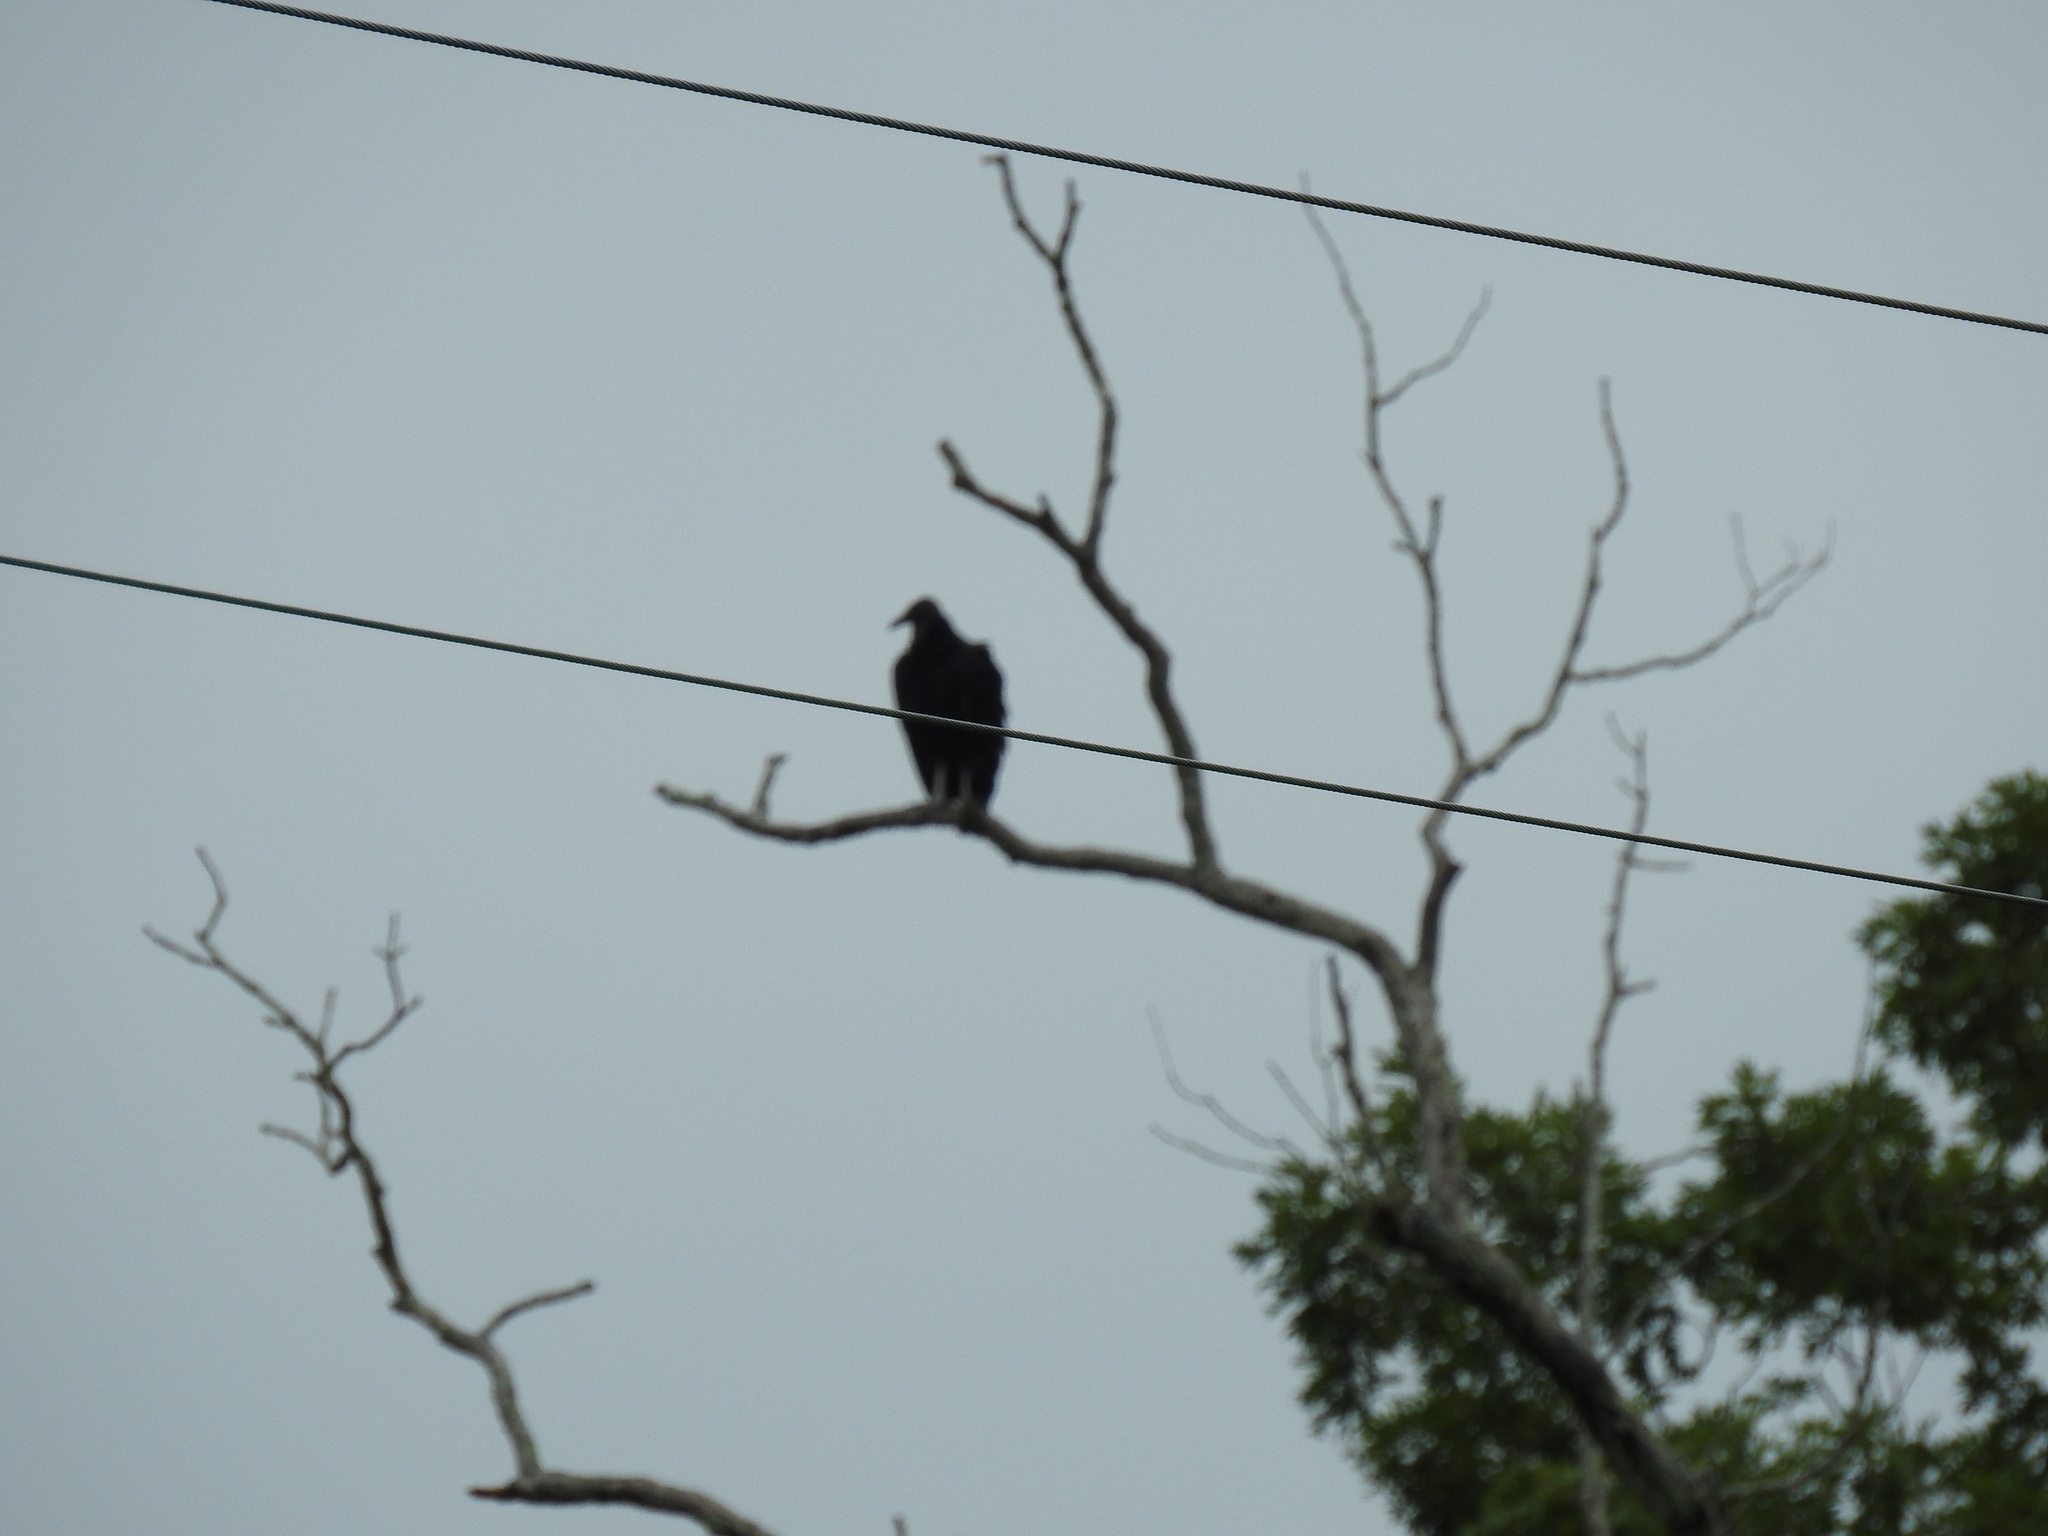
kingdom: Animalia
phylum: Chordata
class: Aves
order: Accipitriformes
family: Cathartidae
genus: Coragyps
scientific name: Coragyps atratus
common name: Black vulture
